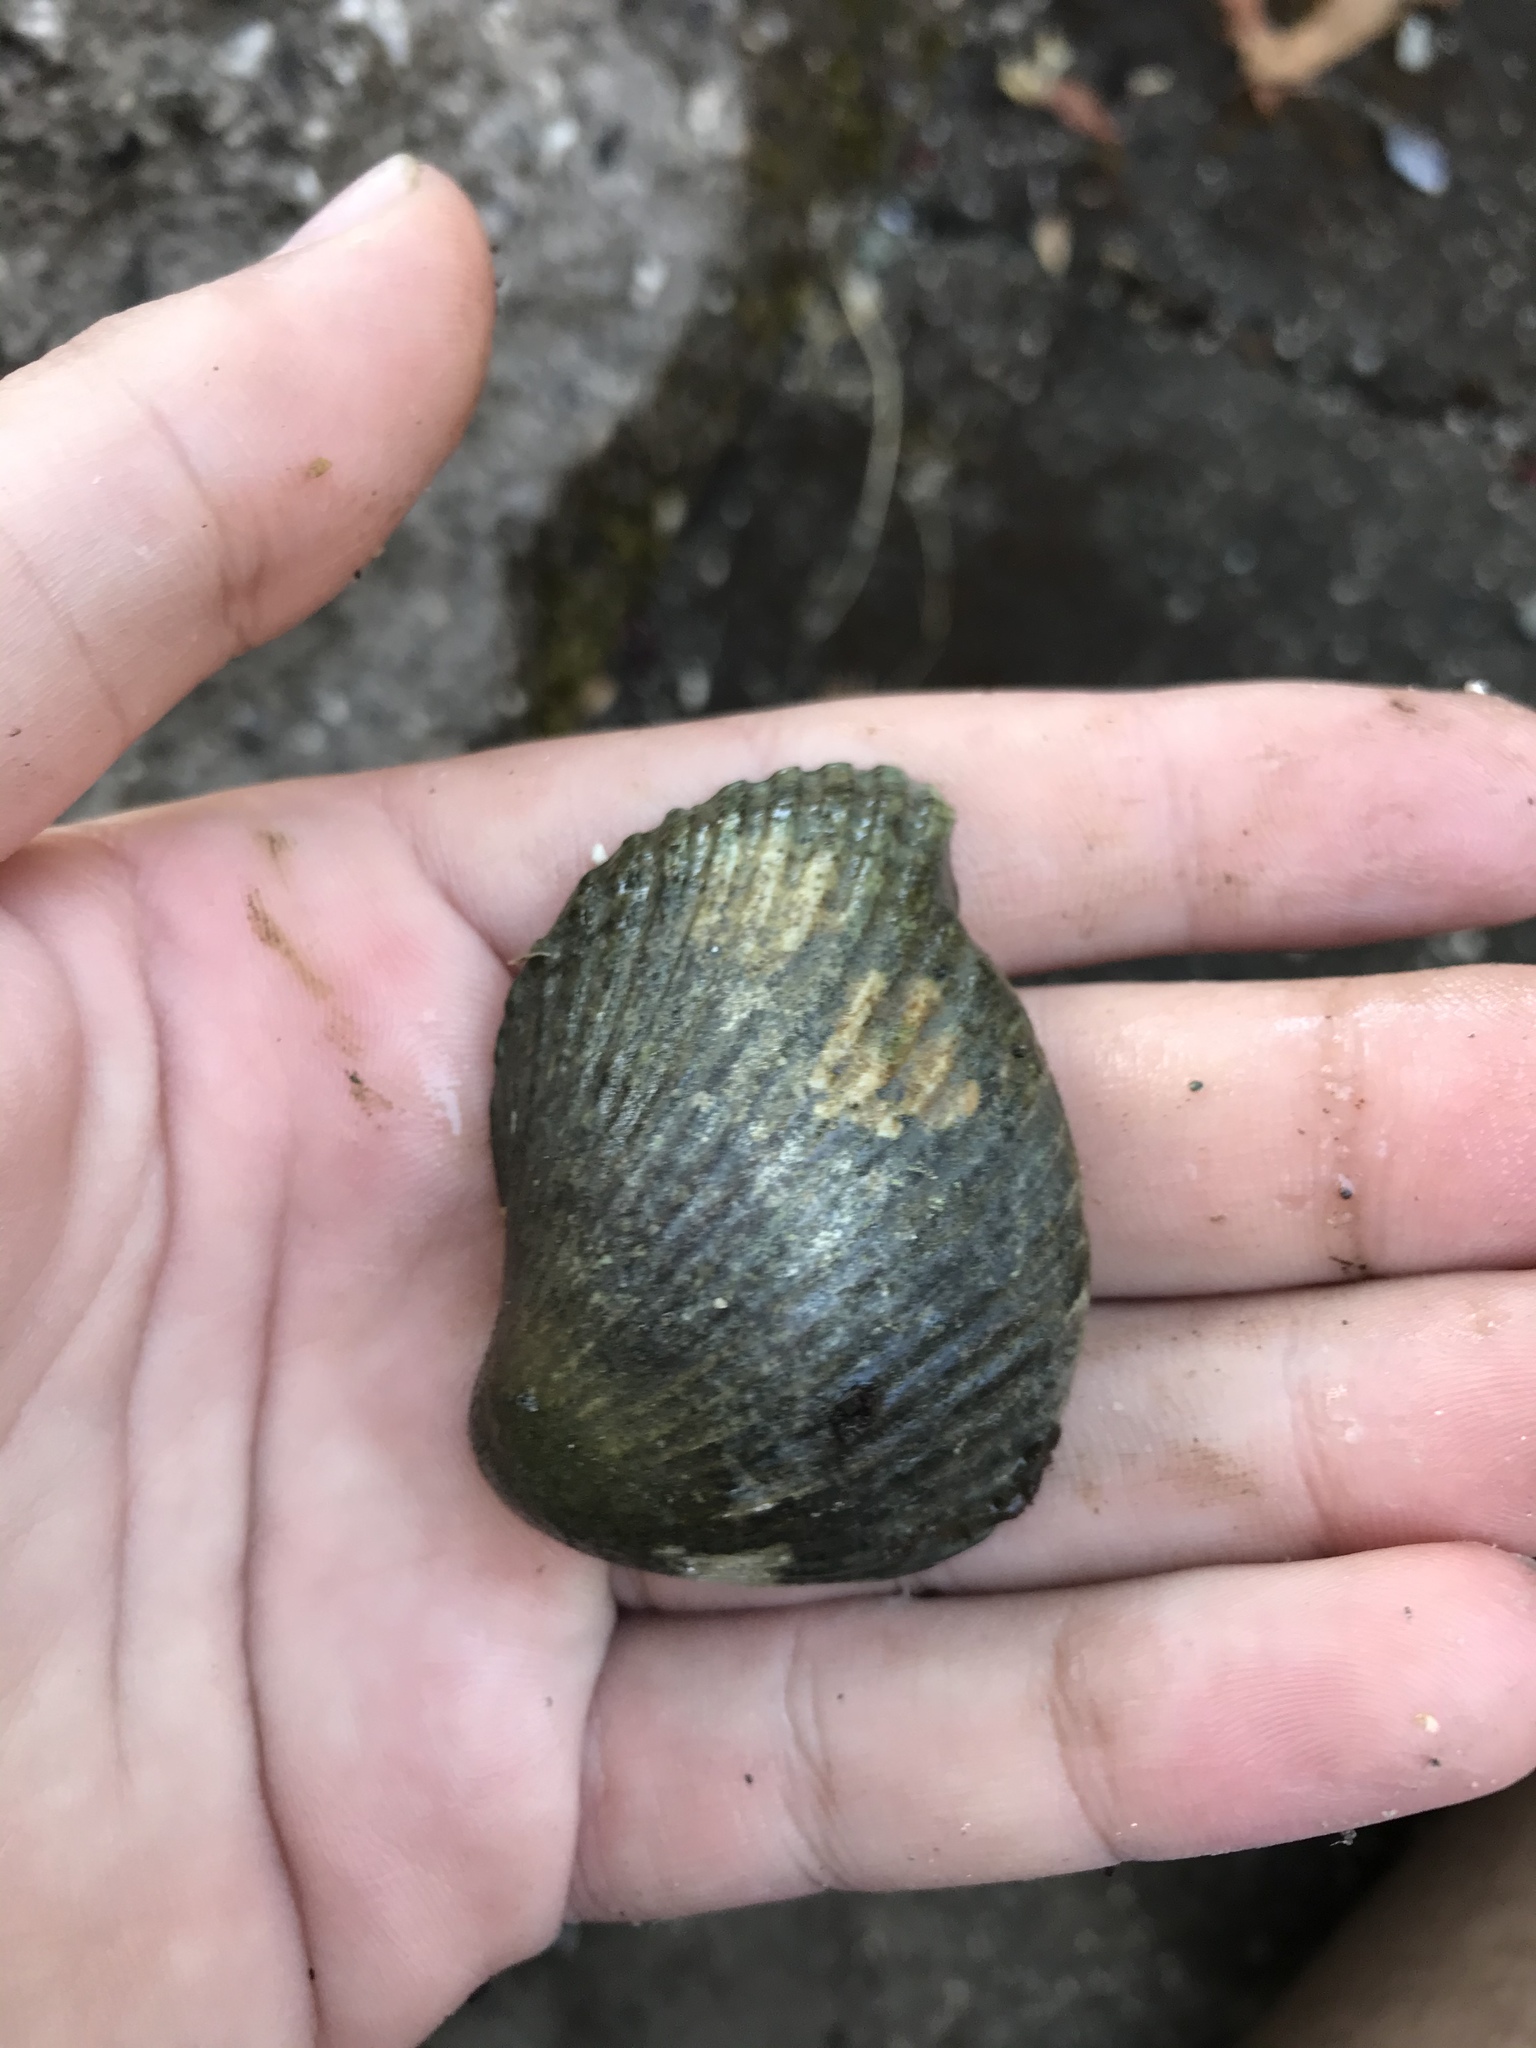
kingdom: Animalia
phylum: Mollusca
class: Bivalvia
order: Cardiida
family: Cardiidae
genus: Clinocardium
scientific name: Clinocardium nuttallii
